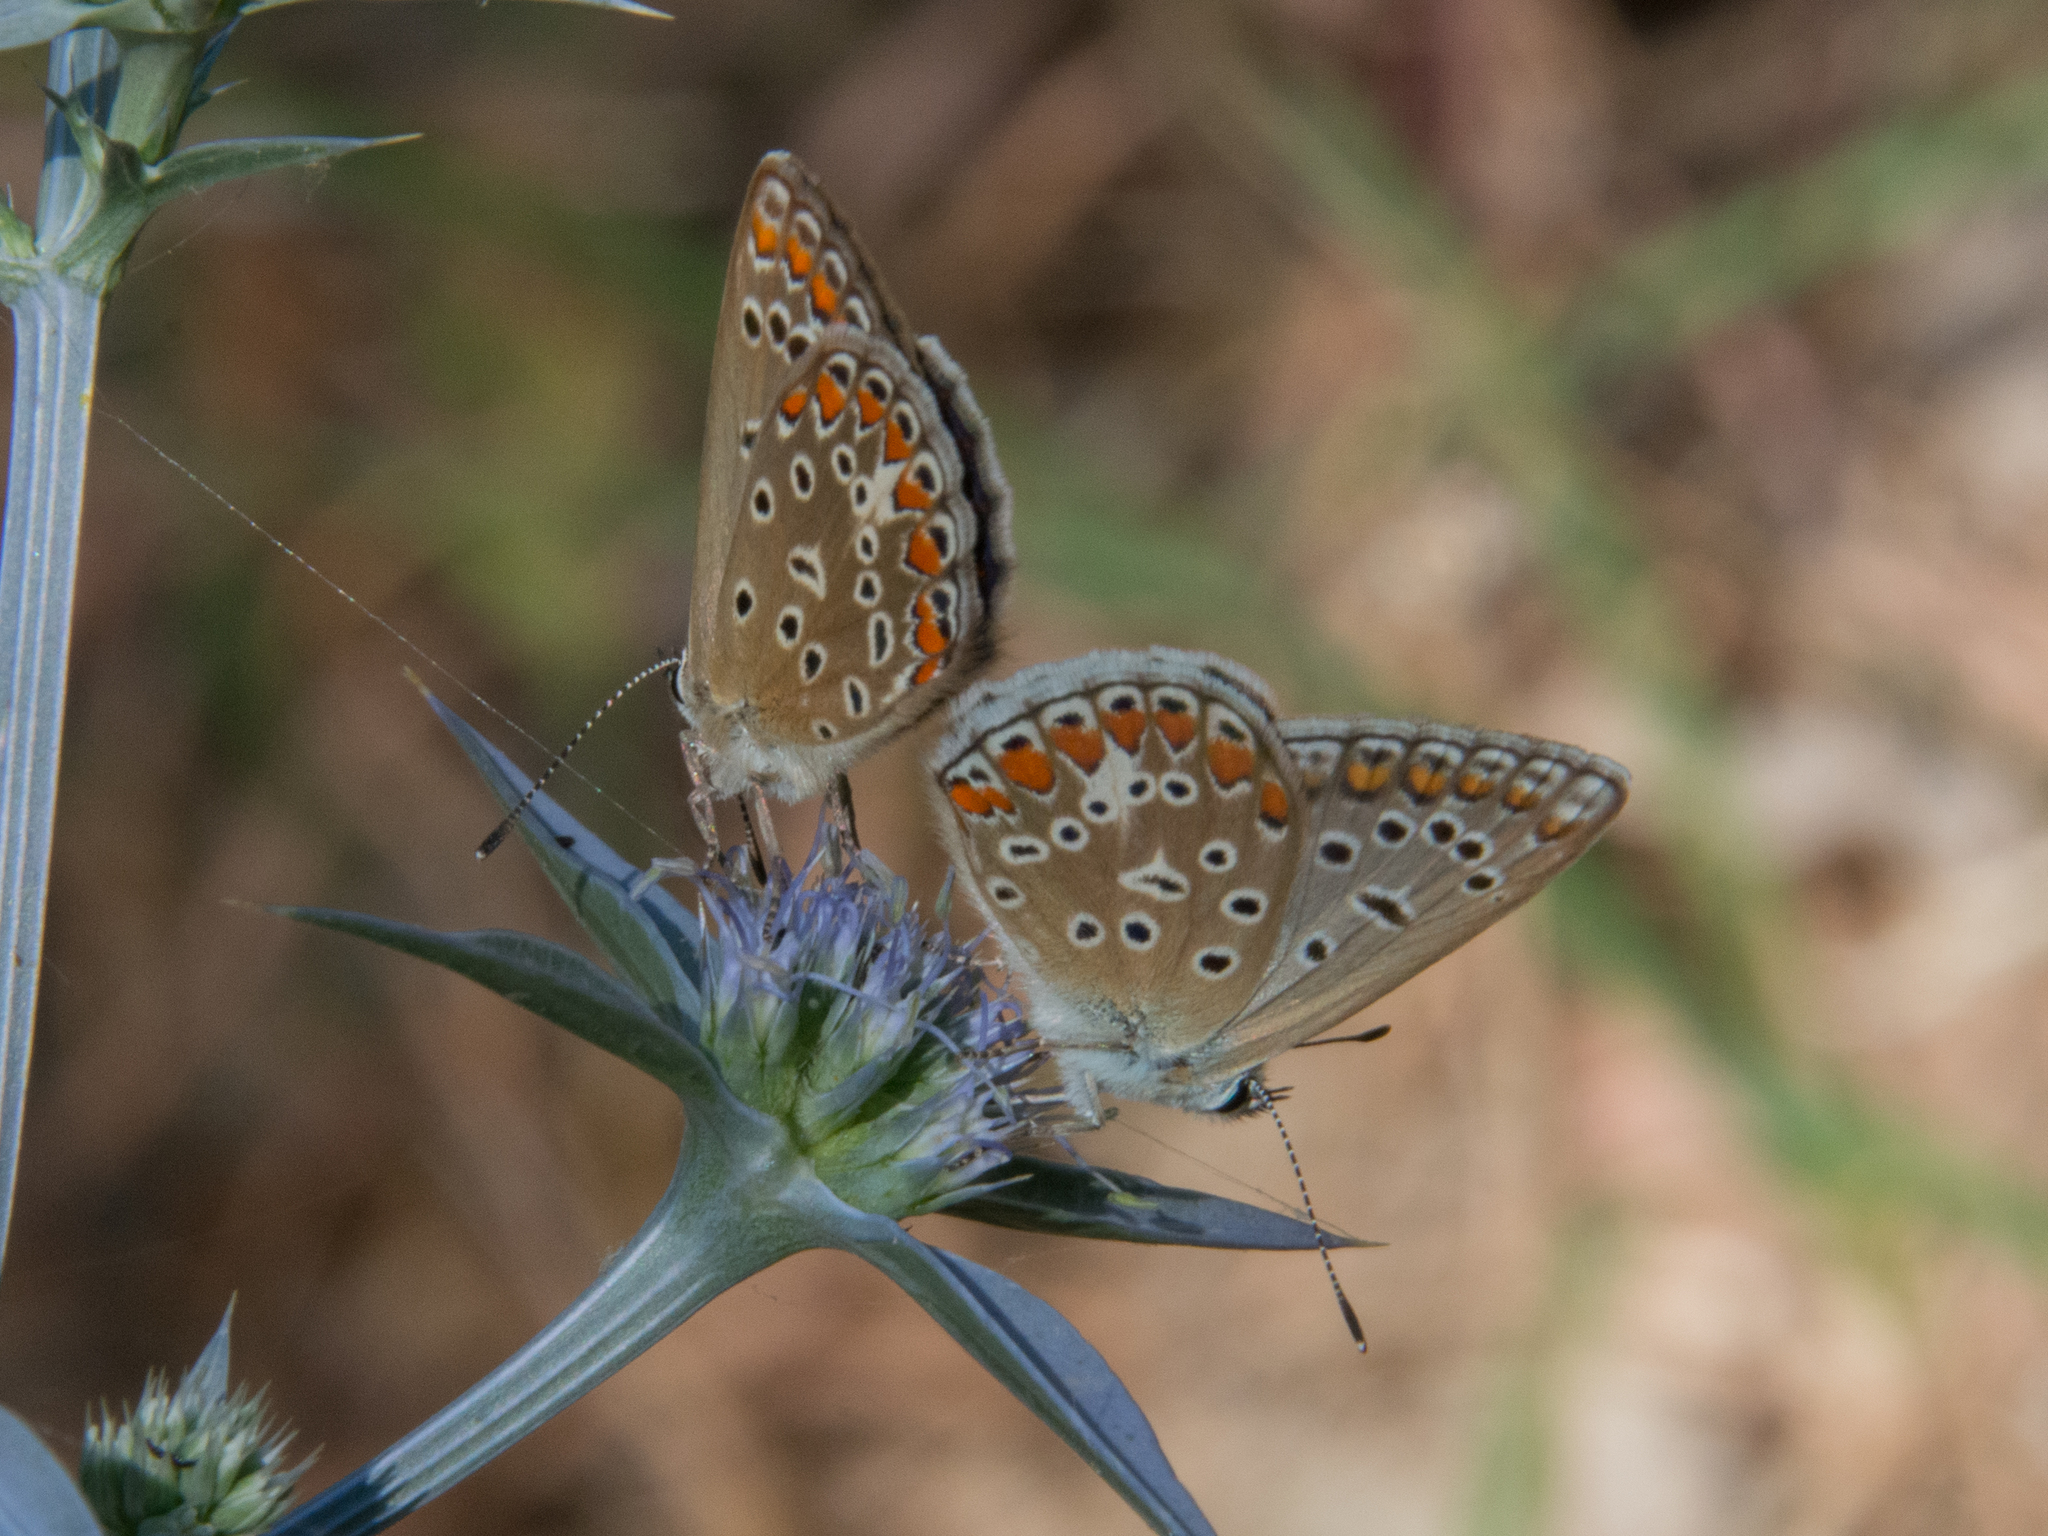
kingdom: Animalia
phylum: Arthropoda
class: Insecta
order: Lepidoptera
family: Lycaenidae
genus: Polyommatus
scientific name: Polyommatus celina
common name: Austaut's blue
